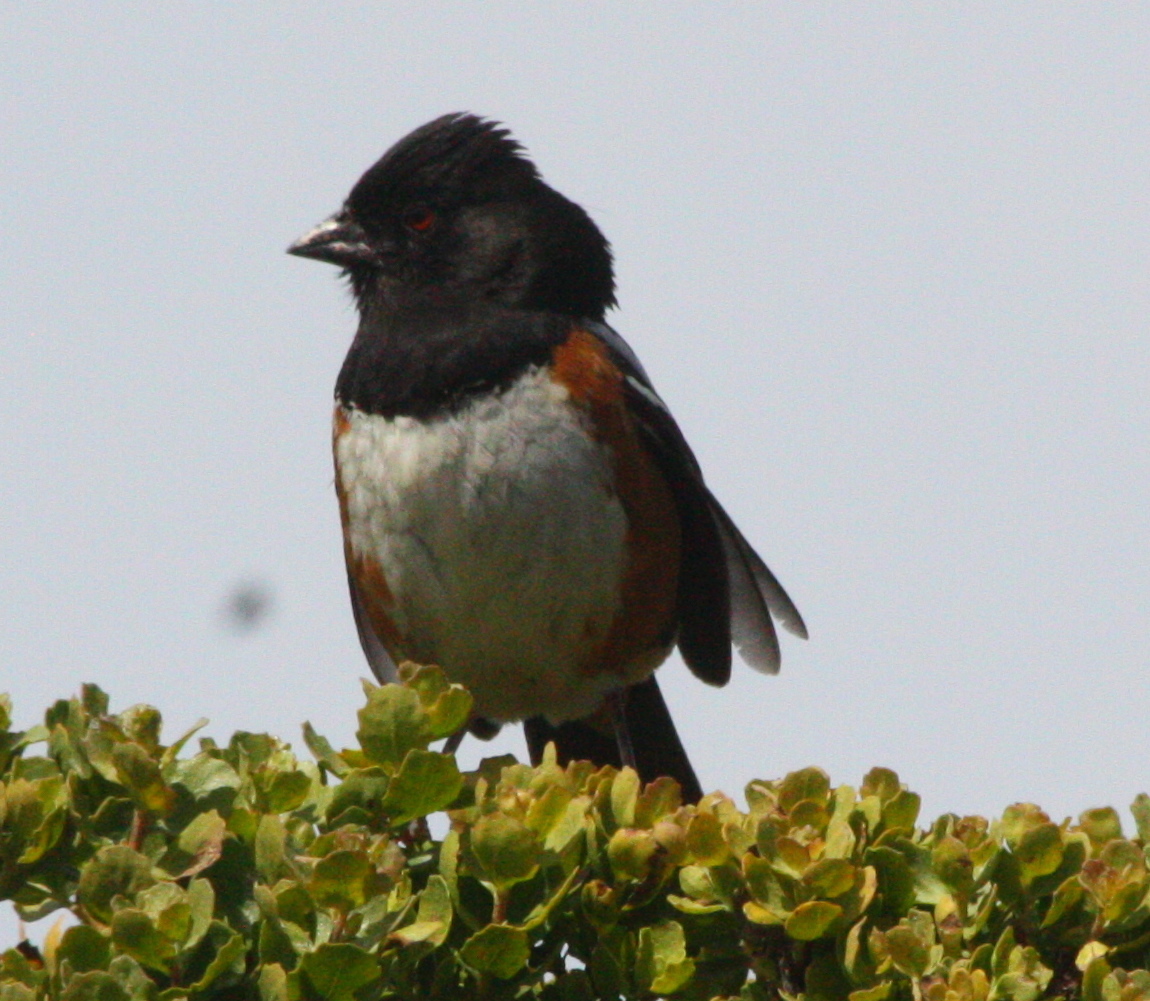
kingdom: Animalia
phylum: Chordata
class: Aves
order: Passeriformes
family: Passerellidae
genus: Pipilo
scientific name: Pipilo maculatus
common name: Spotted towhee
